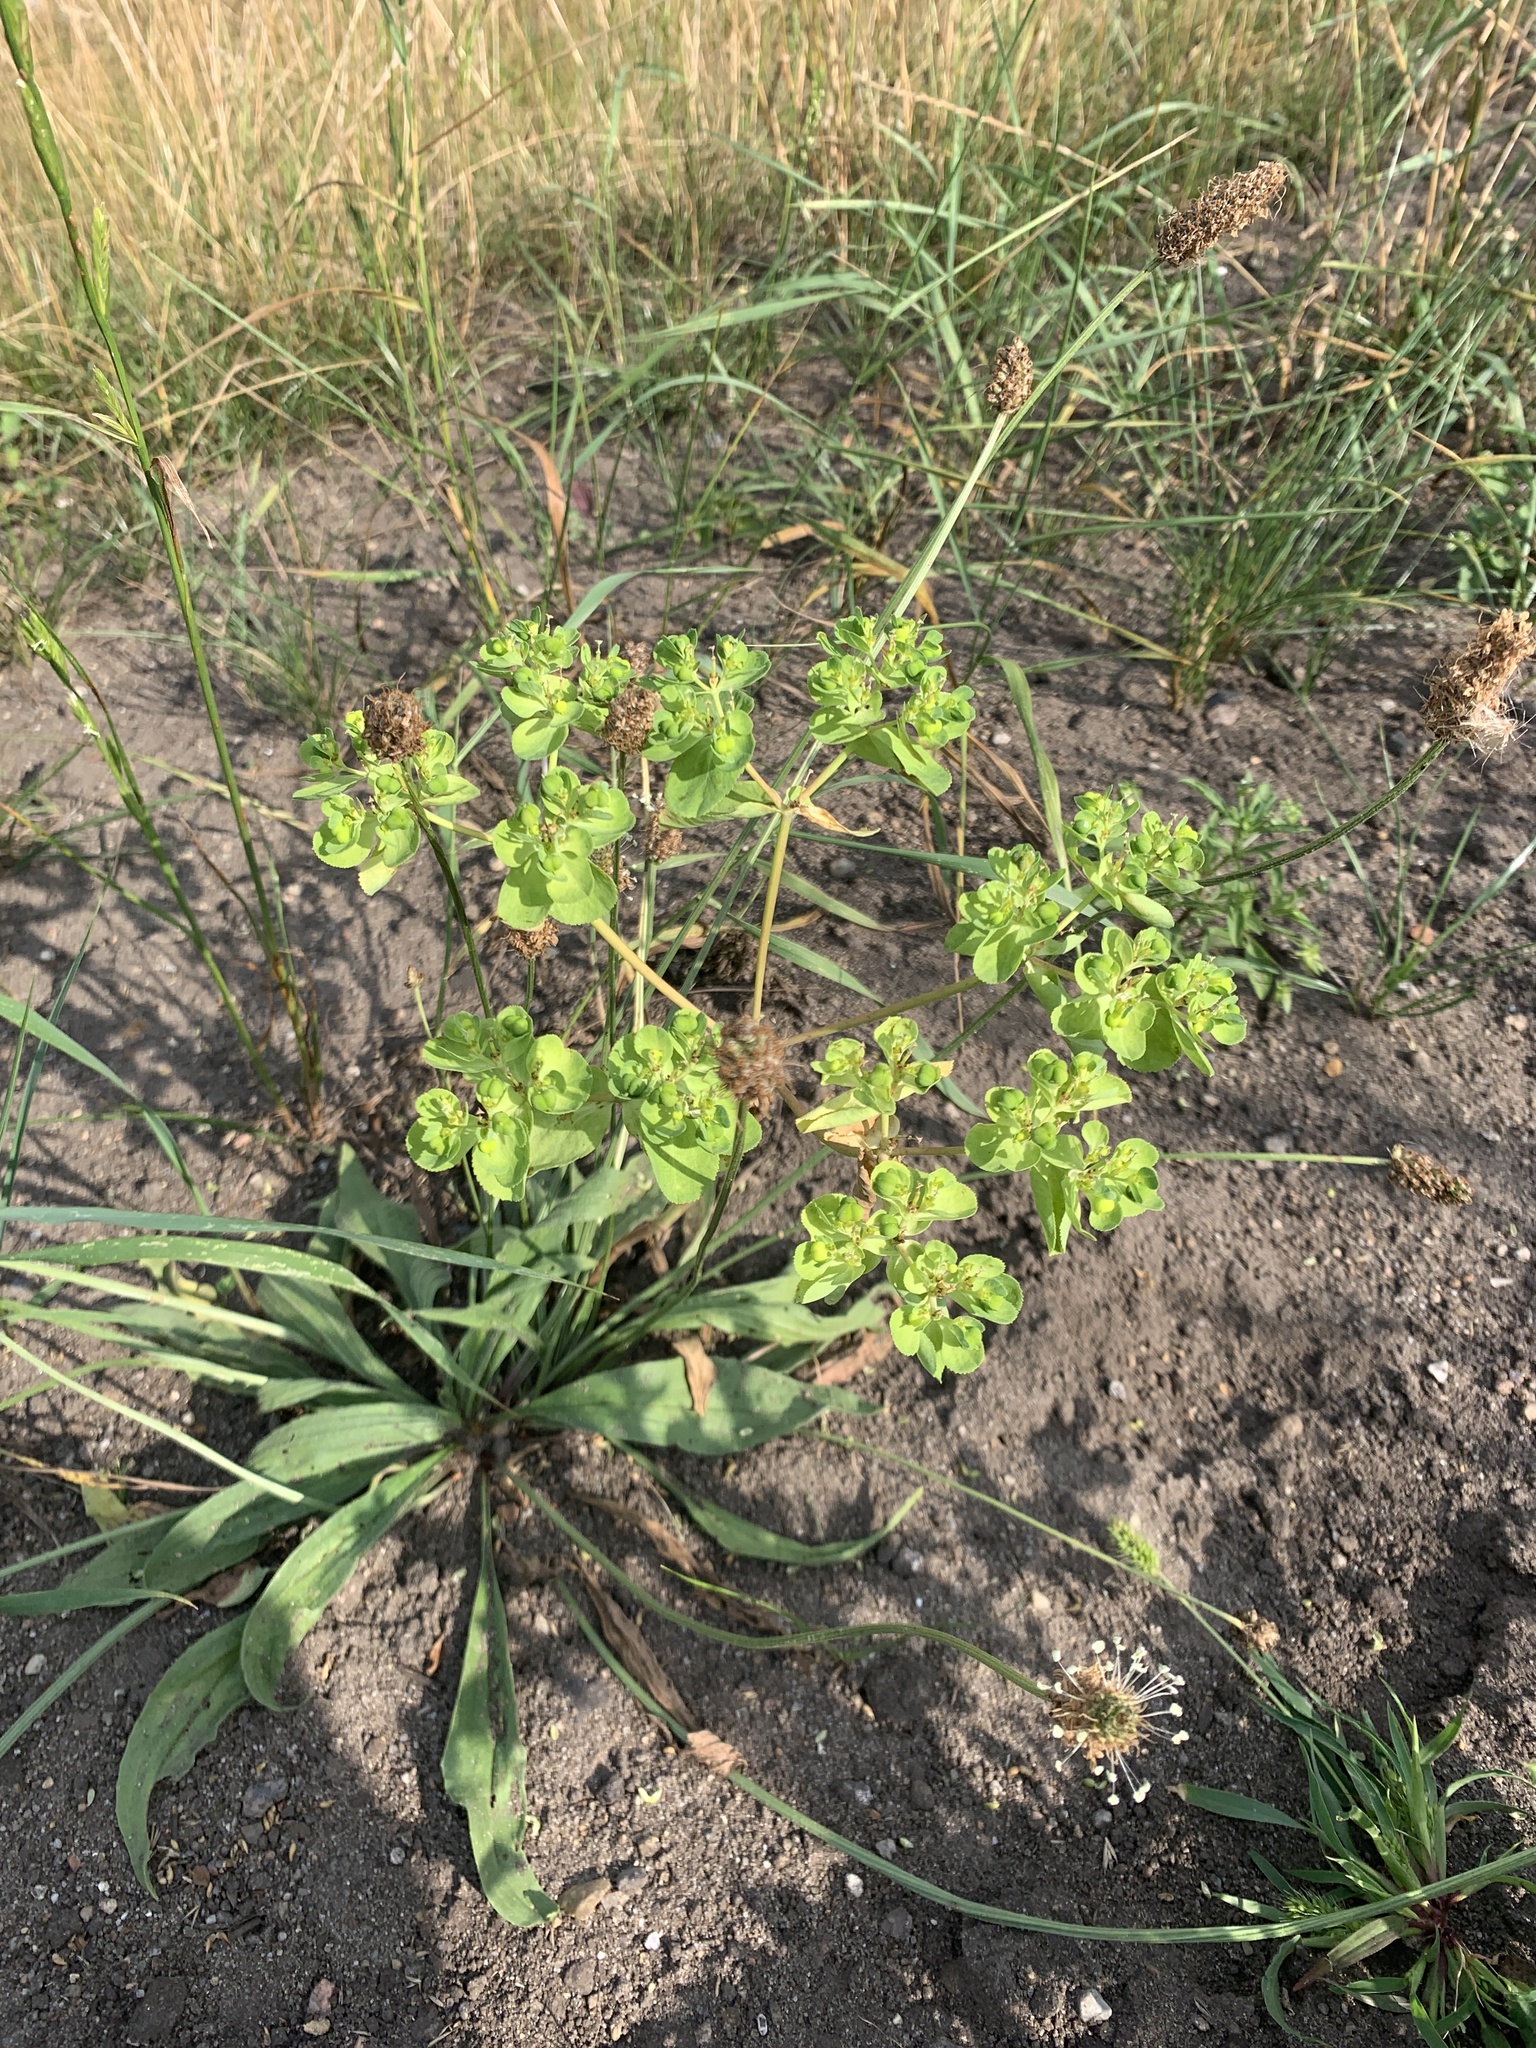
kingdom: Plantae
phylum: Tracheophyta
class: Magnoliopsida
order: Malpighiales
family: Euphorbiaceae
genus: Euphorbia
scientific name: Euphorbia helioscopia
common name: Sun spurge
